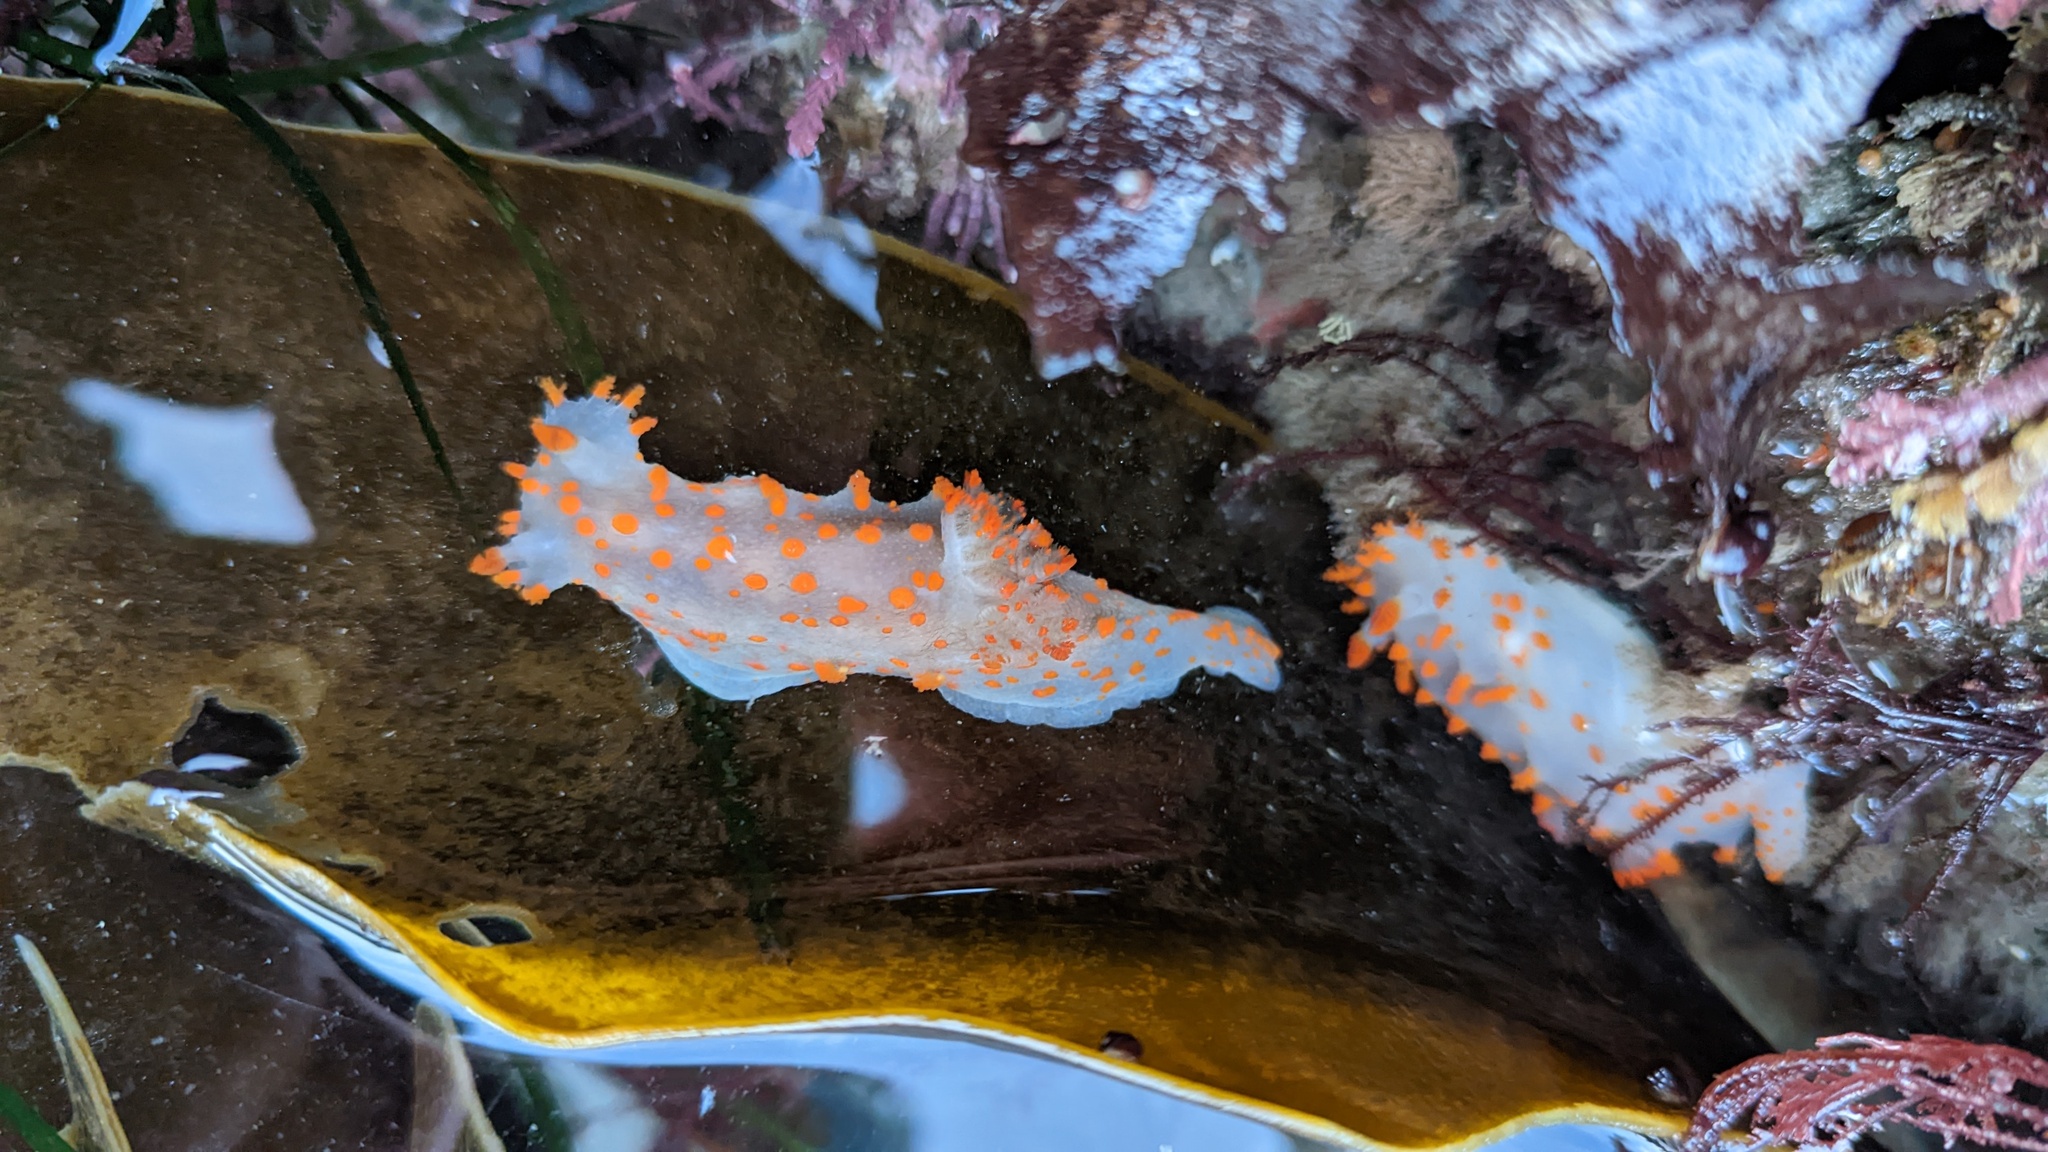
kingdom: Animalia
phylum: Mollusca
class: Gastropoda
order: Nudibranchia
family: Polyceridae
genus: Triopha
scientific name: Triopha catalinae
